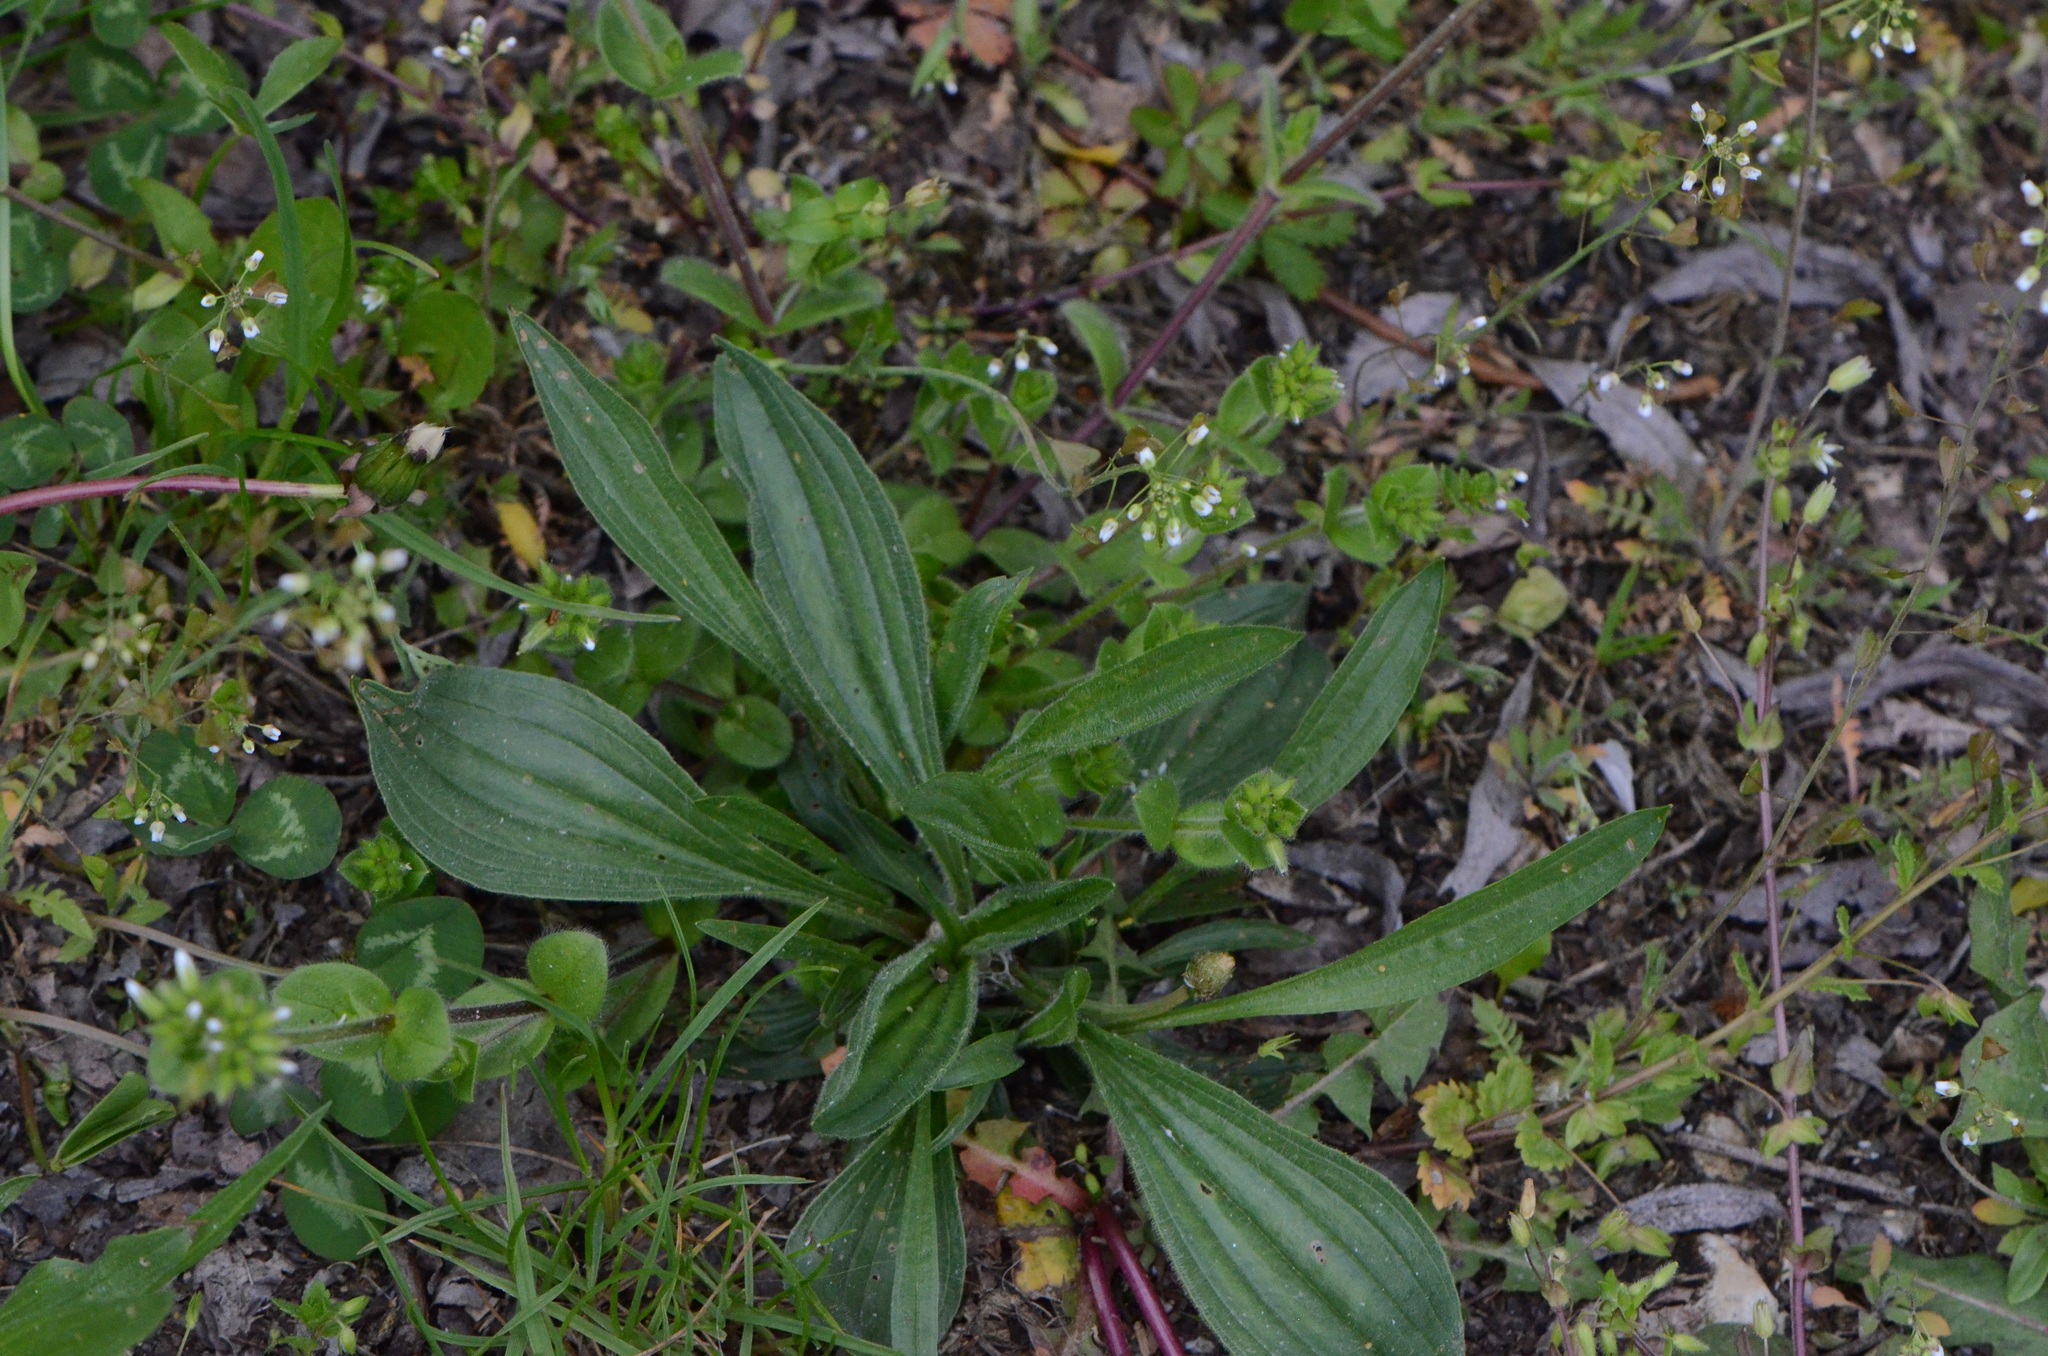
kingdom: Plantae
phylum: Tracheophyta
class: Magnoliopsida
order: Lamiales
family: Plantaginaceae
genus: Plantago
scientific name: Plantago lanceolata
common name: Ribwort plantain
